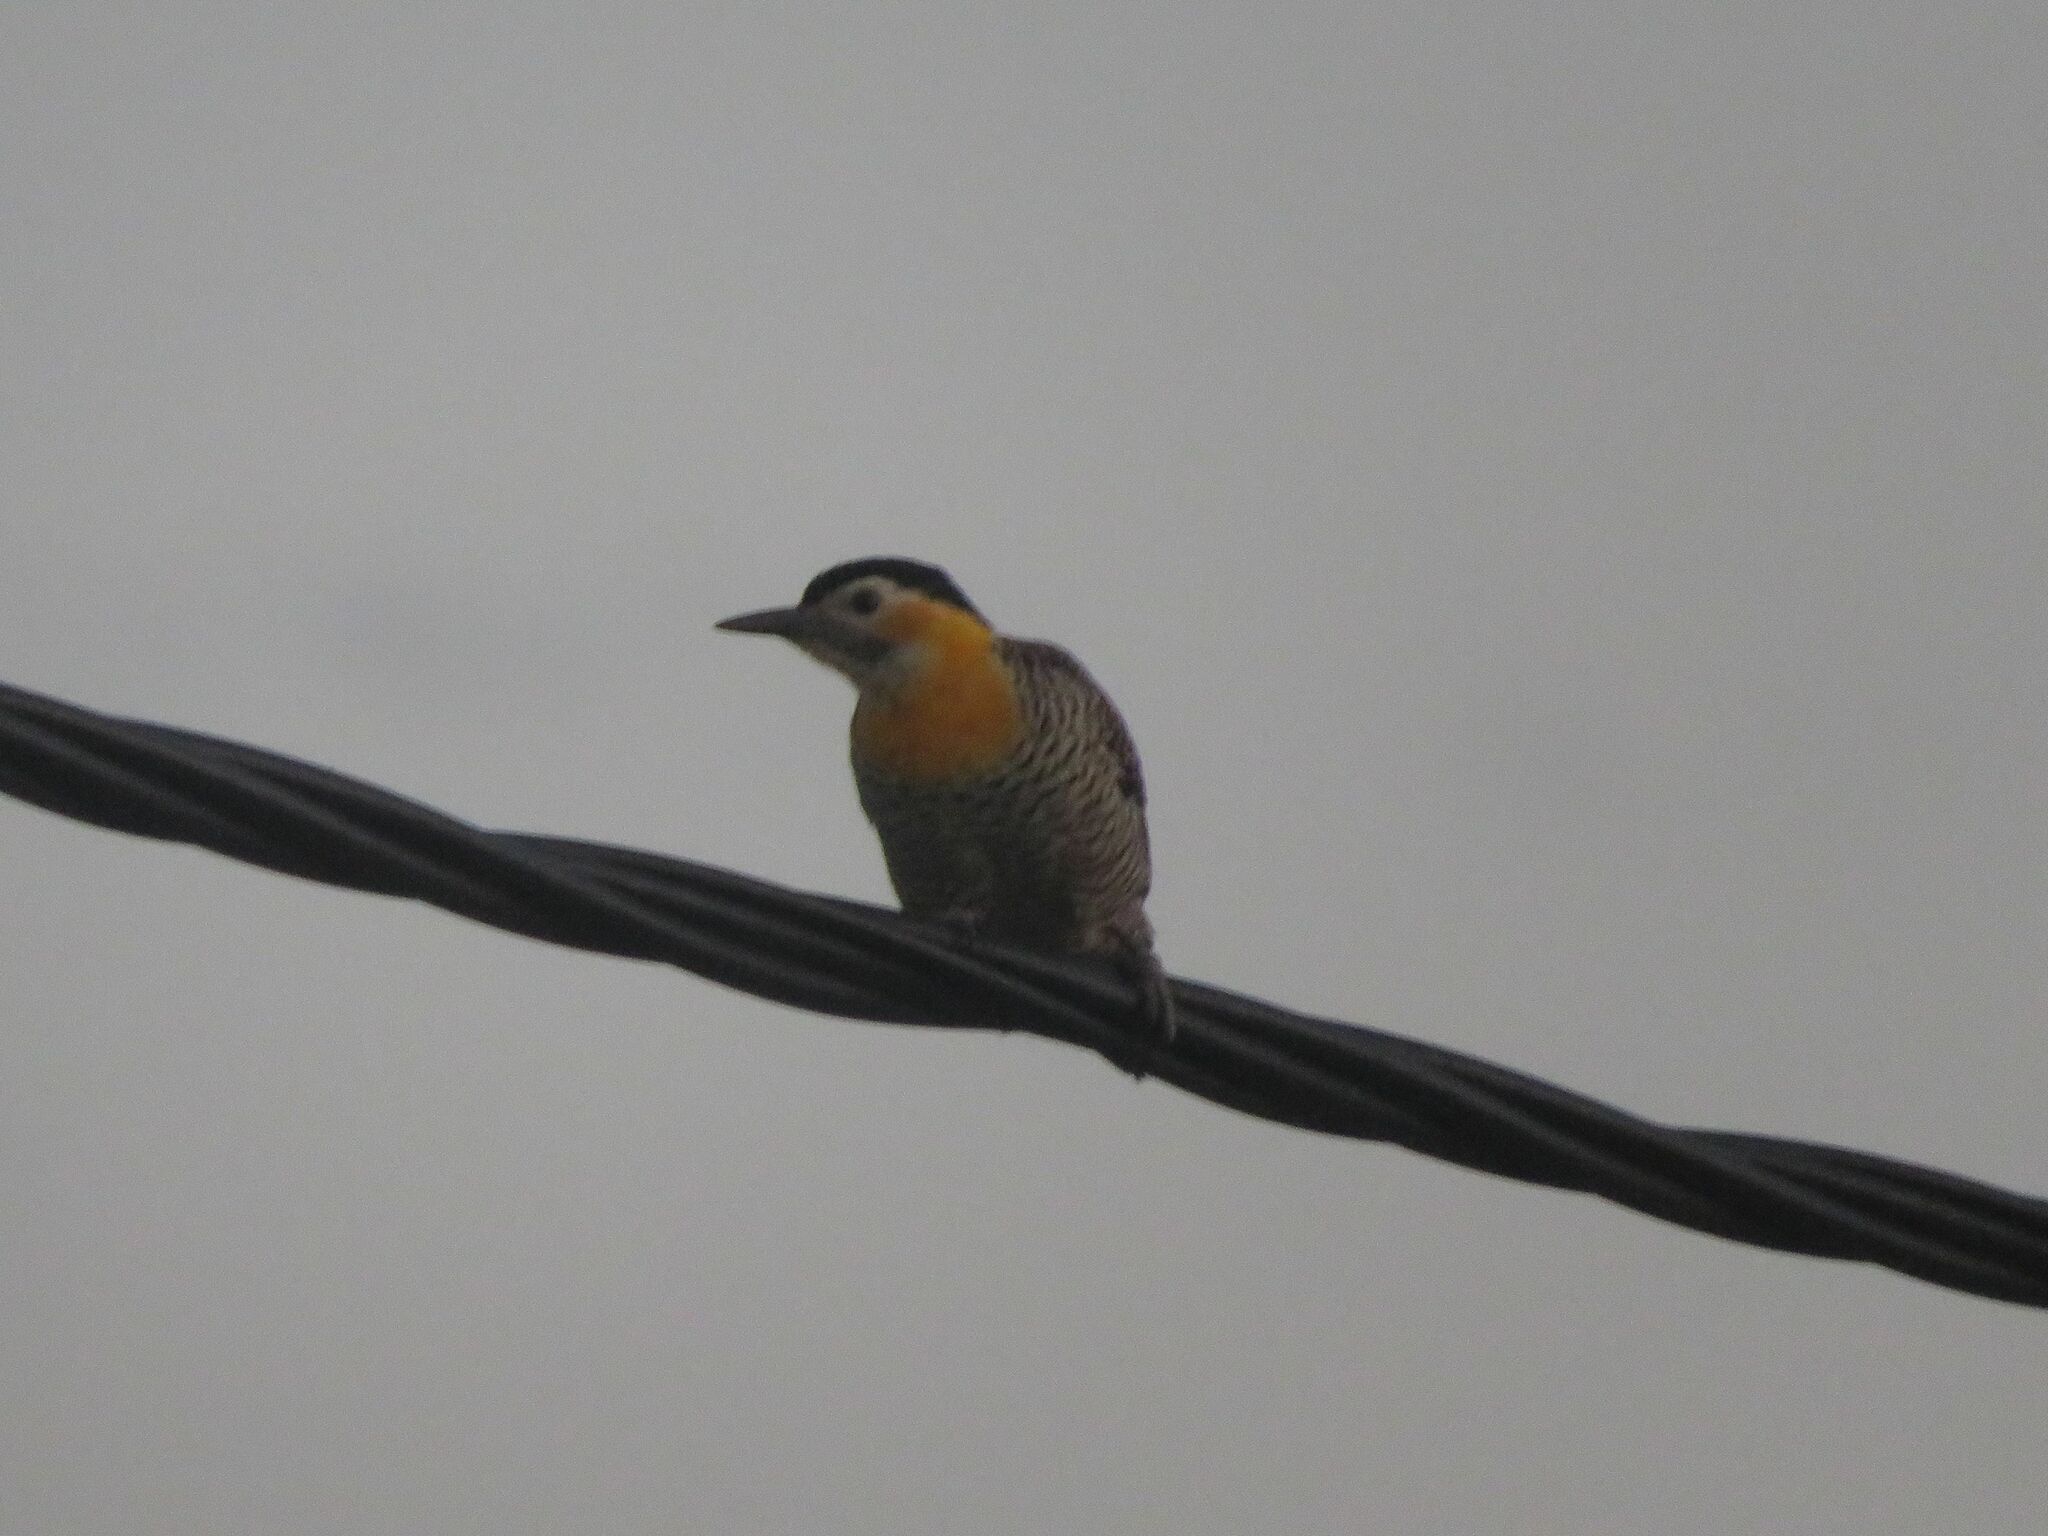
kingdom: Animalia
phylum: Chordata
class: Aves
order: Piciformes
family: Picidae
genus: Colaptes
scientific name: Colaptes campestris
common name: Campo flicker
